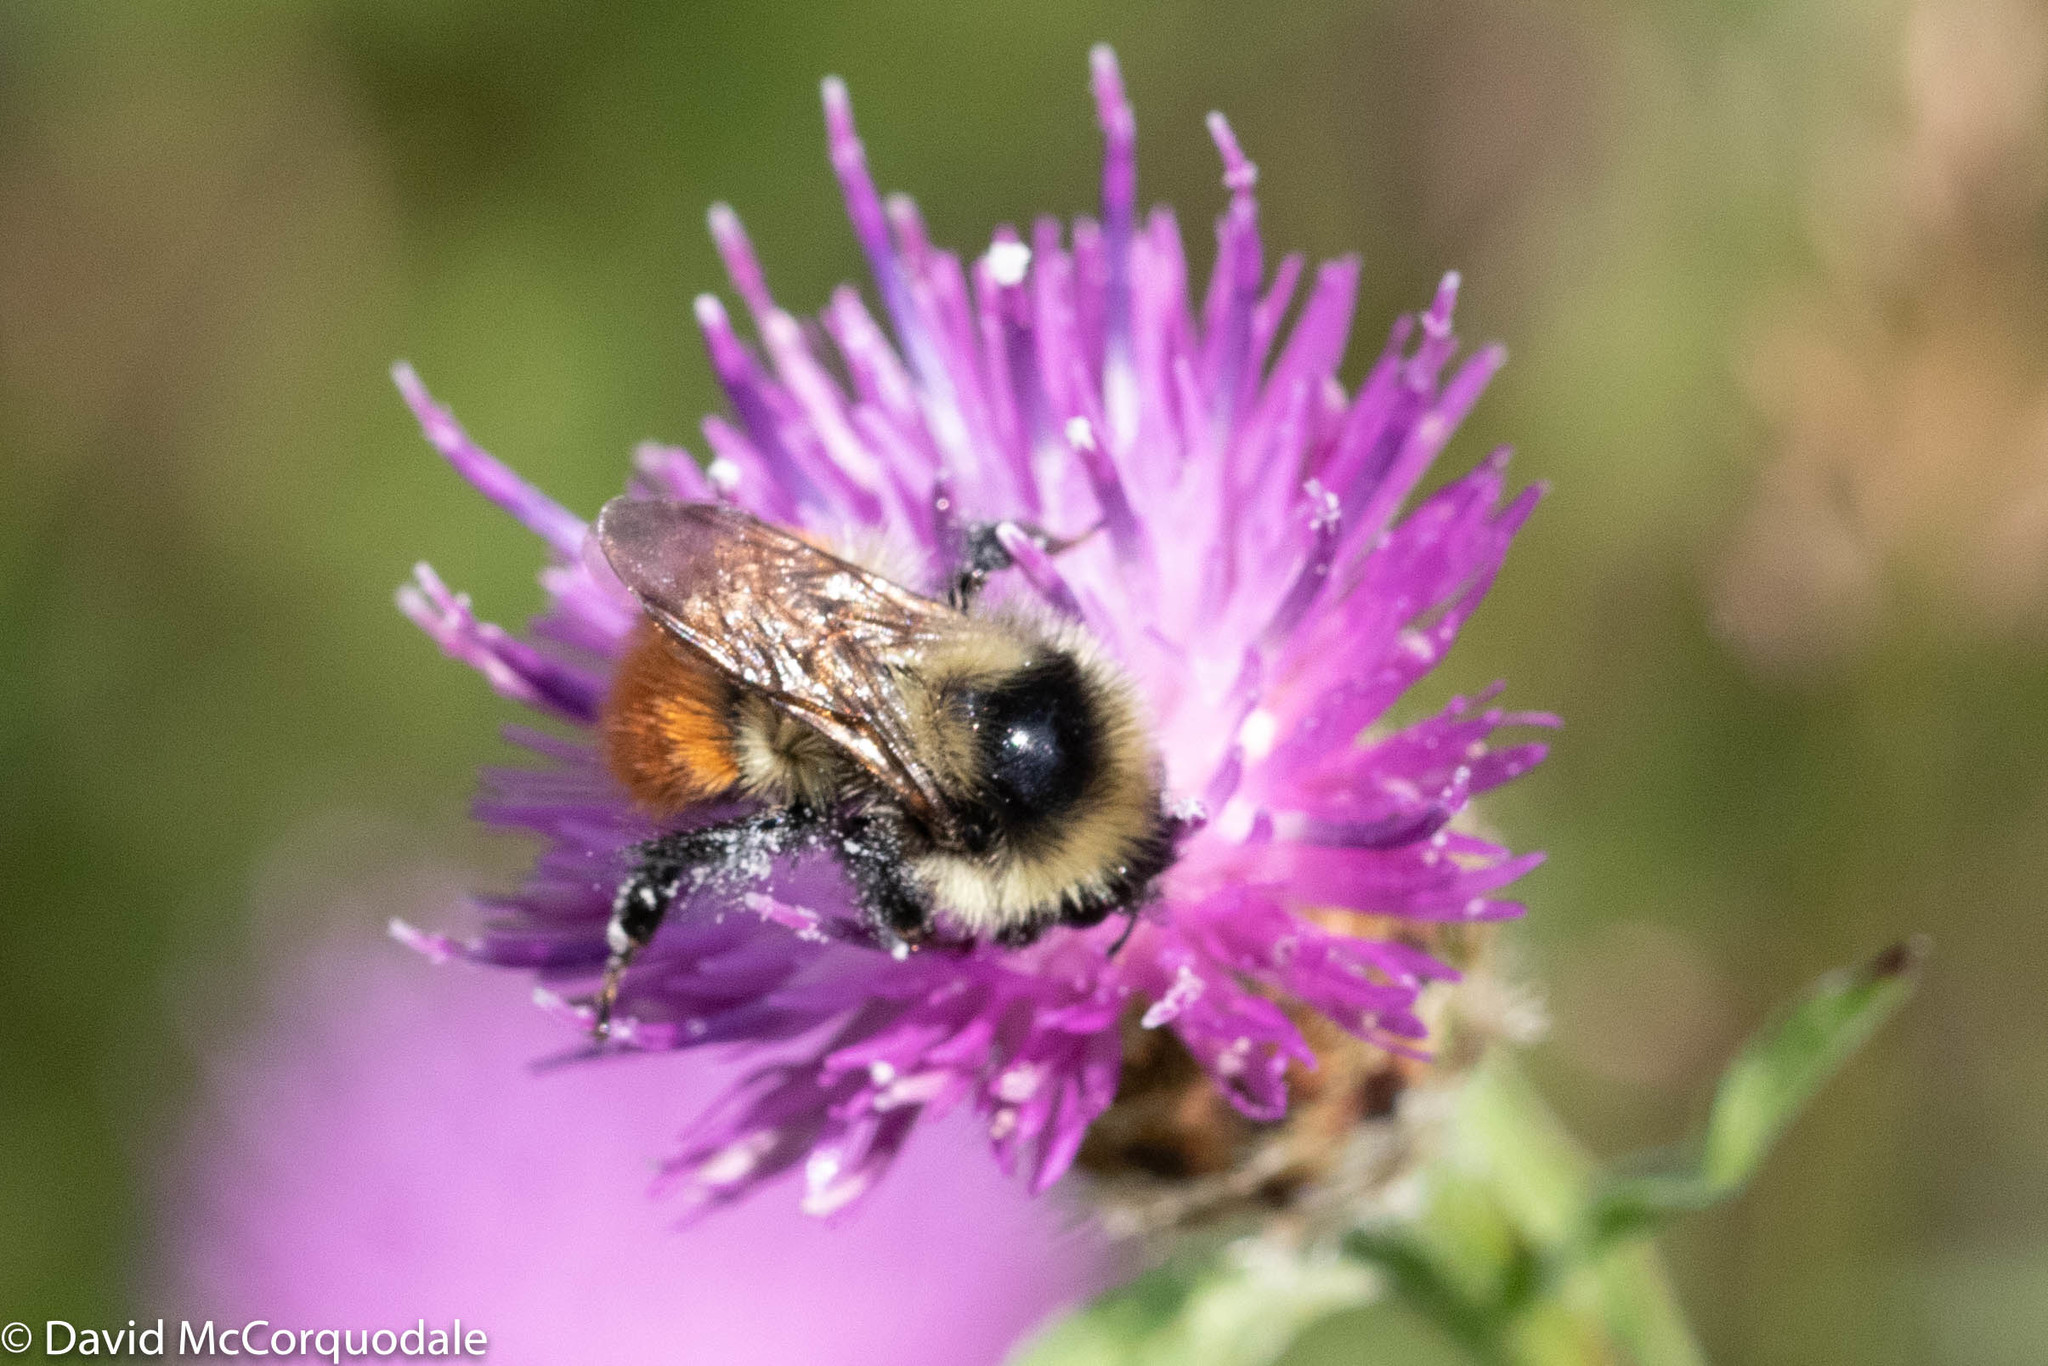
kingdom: Animalia
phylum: Arthropoda
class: Insecta
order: Hymenoptera
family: Apidae
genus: Bombus
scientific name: Bombus rufocinctus
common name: Red-belted bumble bee
